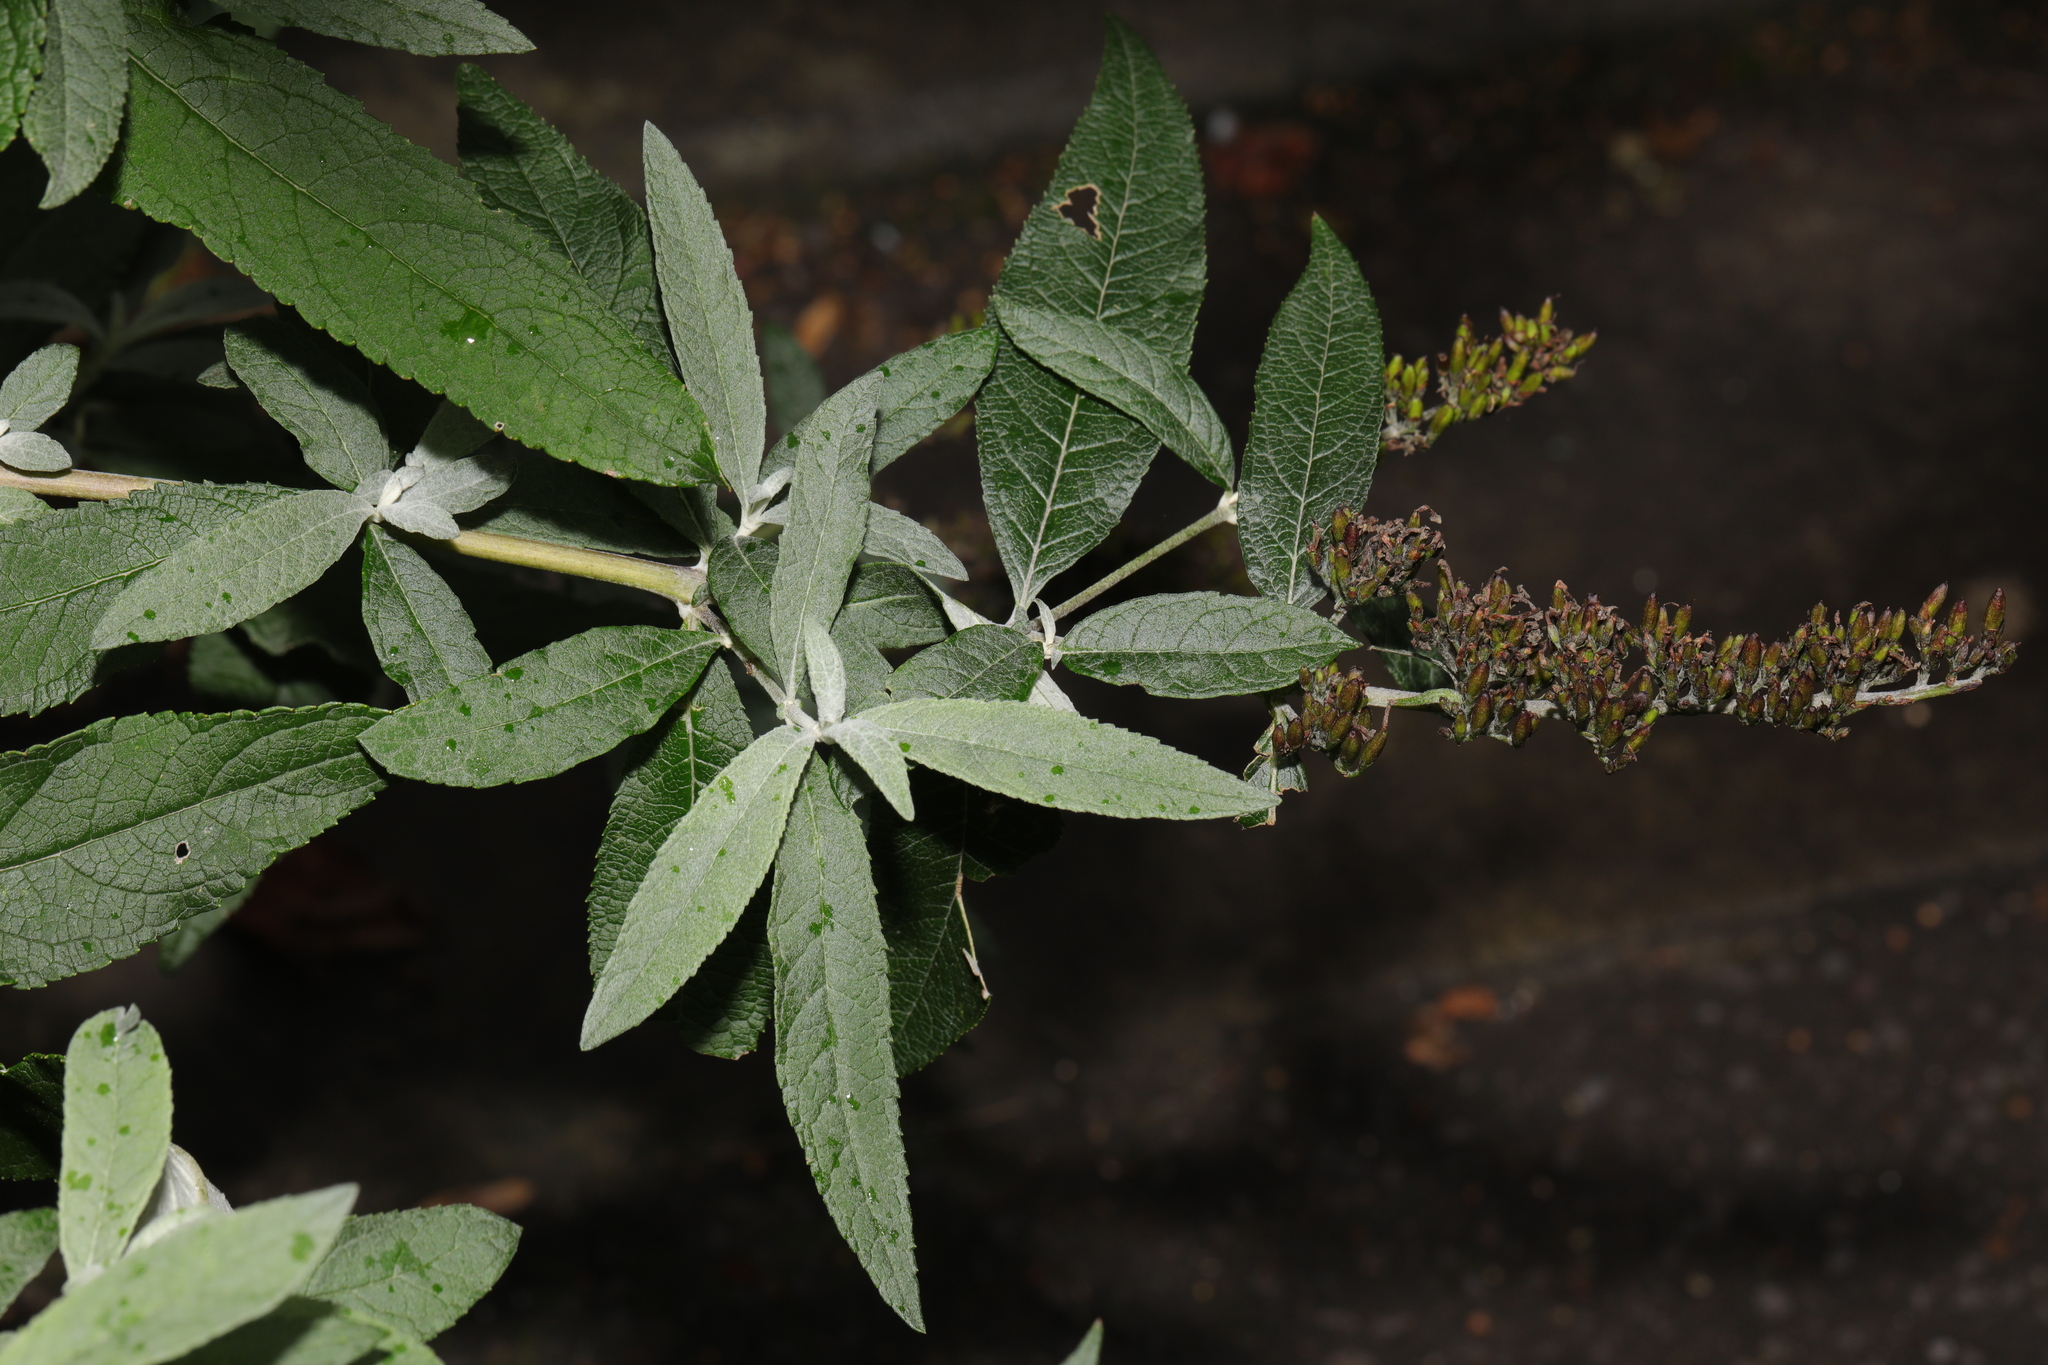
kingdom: Plantae
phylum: Tracheophyta
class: Magnoliopsida
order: Lamiales
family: Scrophulariaceae
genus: Buddleja
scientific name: Buddleja davidii
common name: Butterfly-bush
